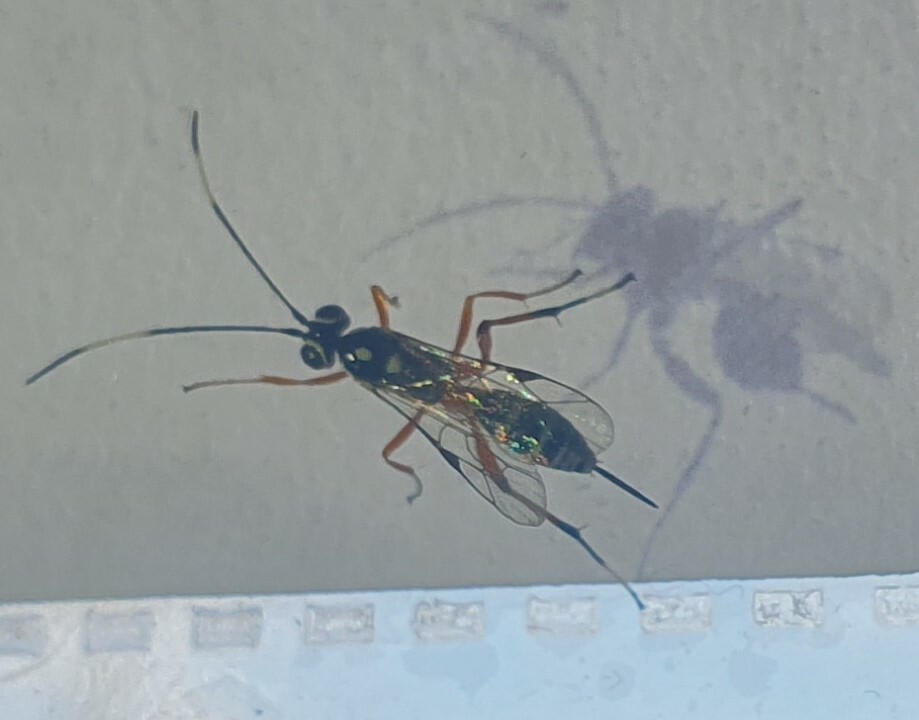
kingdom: Animalia
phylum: Arthropoda
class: Insecta
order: Hymenoptera
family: Ichneumonidae
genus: Glabridorsum
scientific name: Glabridorsum stokesii
